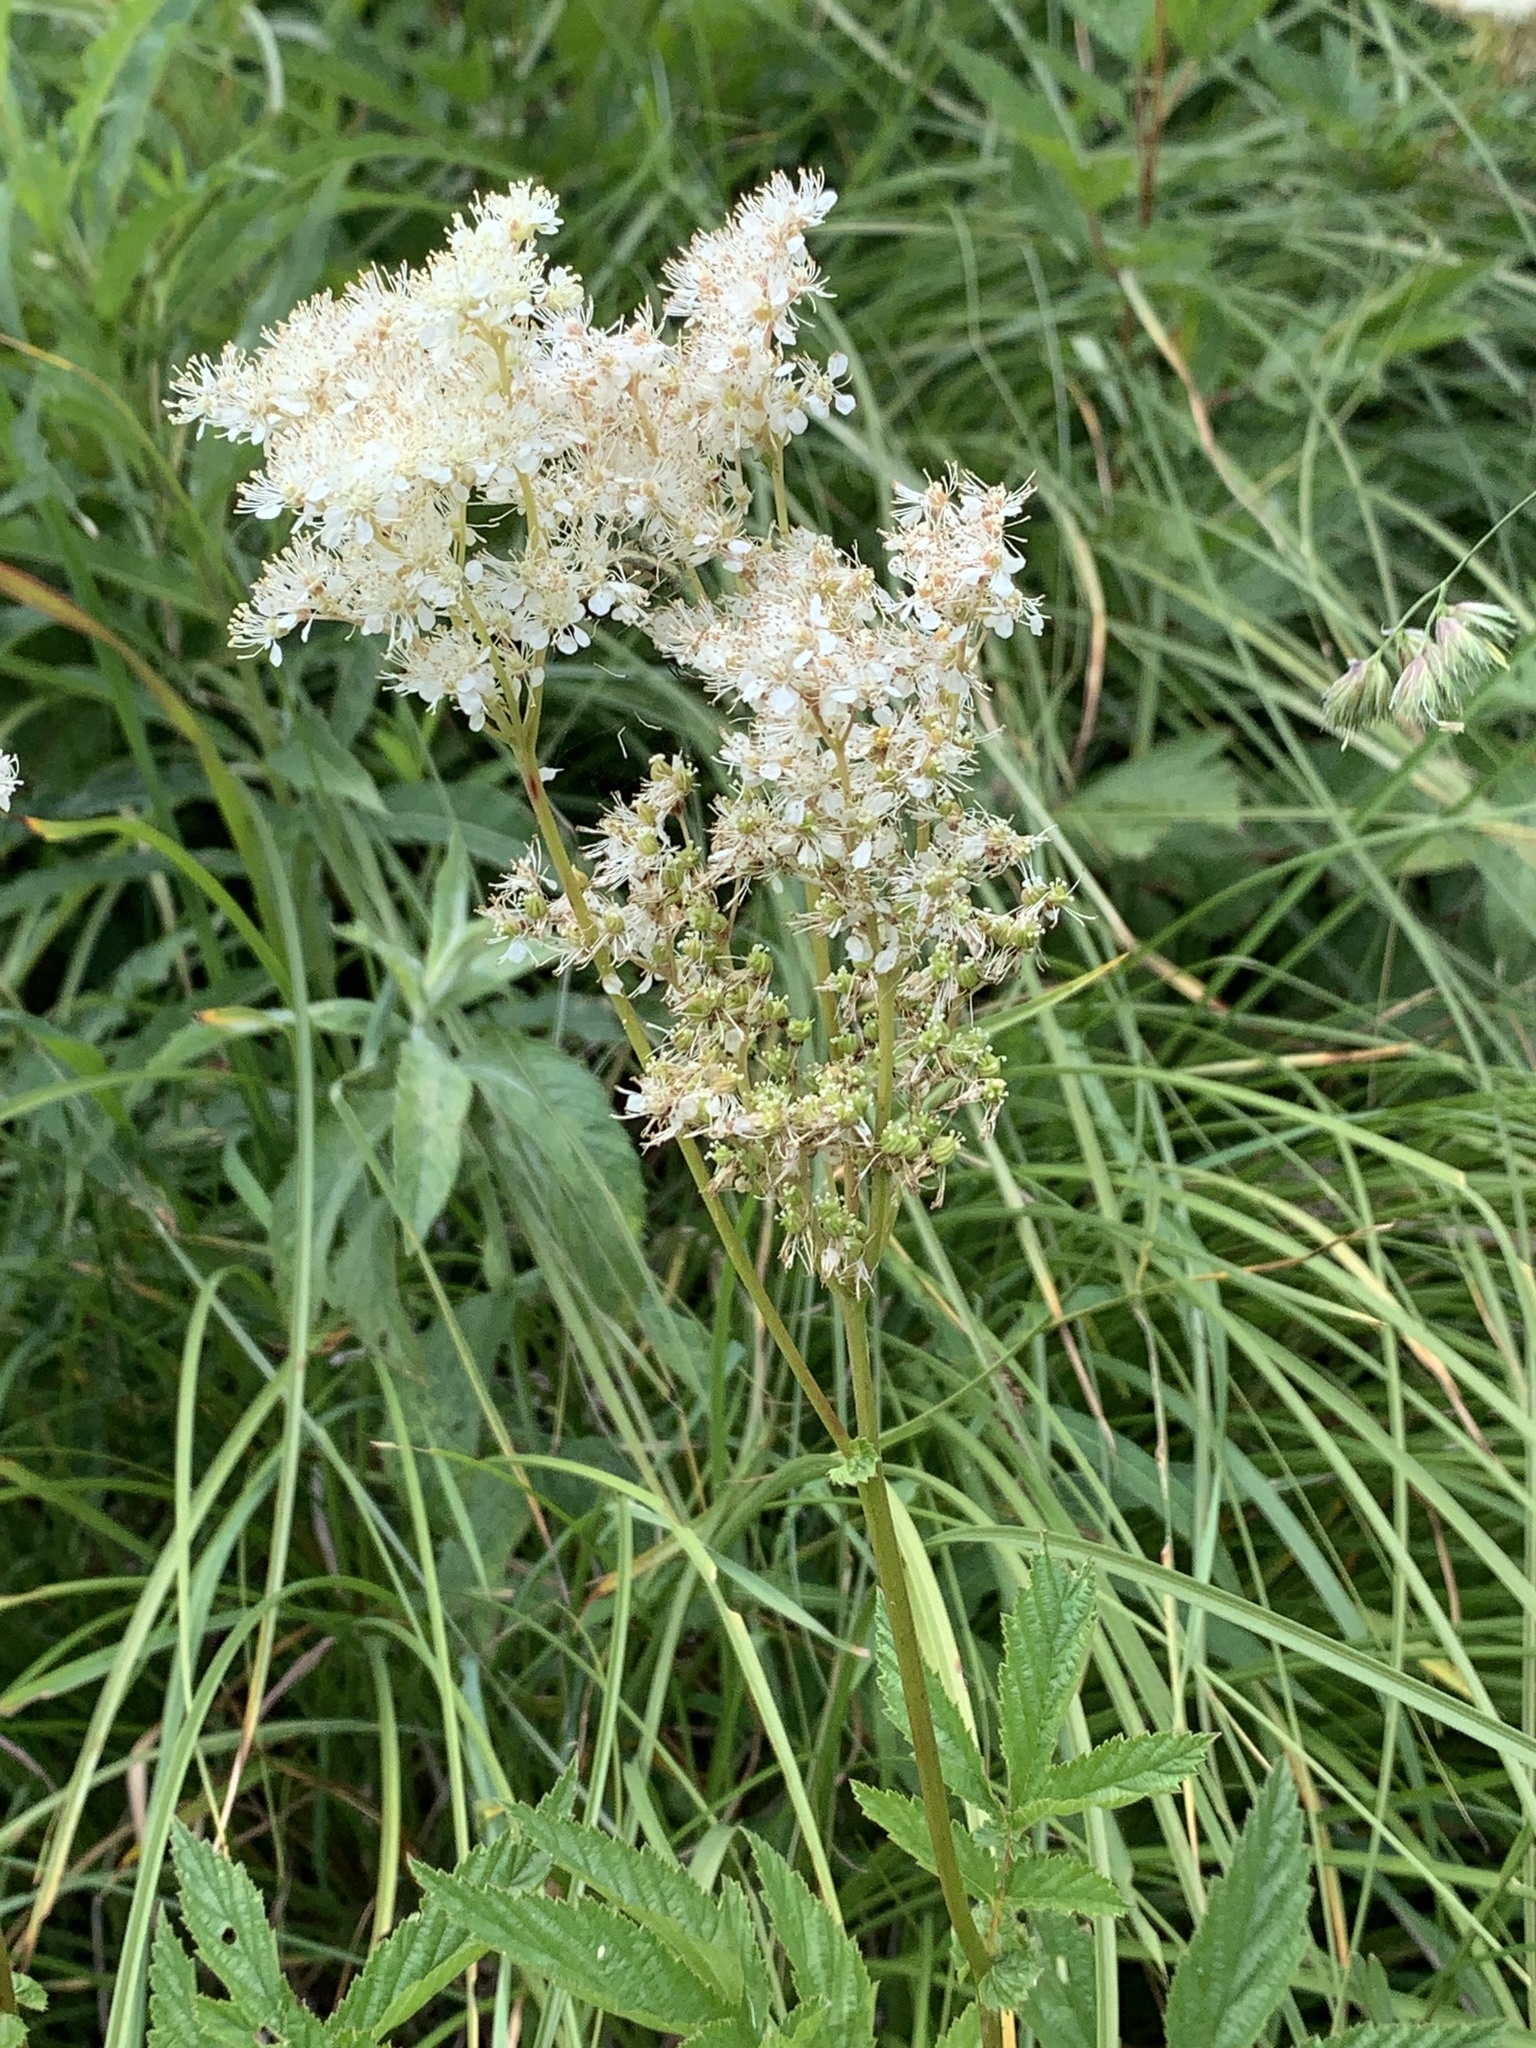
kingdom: Plantae
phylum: Tracheophyta
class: Magnoliopsida
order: Rosales
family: Rosaceae
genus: Filipendula
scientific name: Filipendula ulmaria
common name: Meadowsweet
